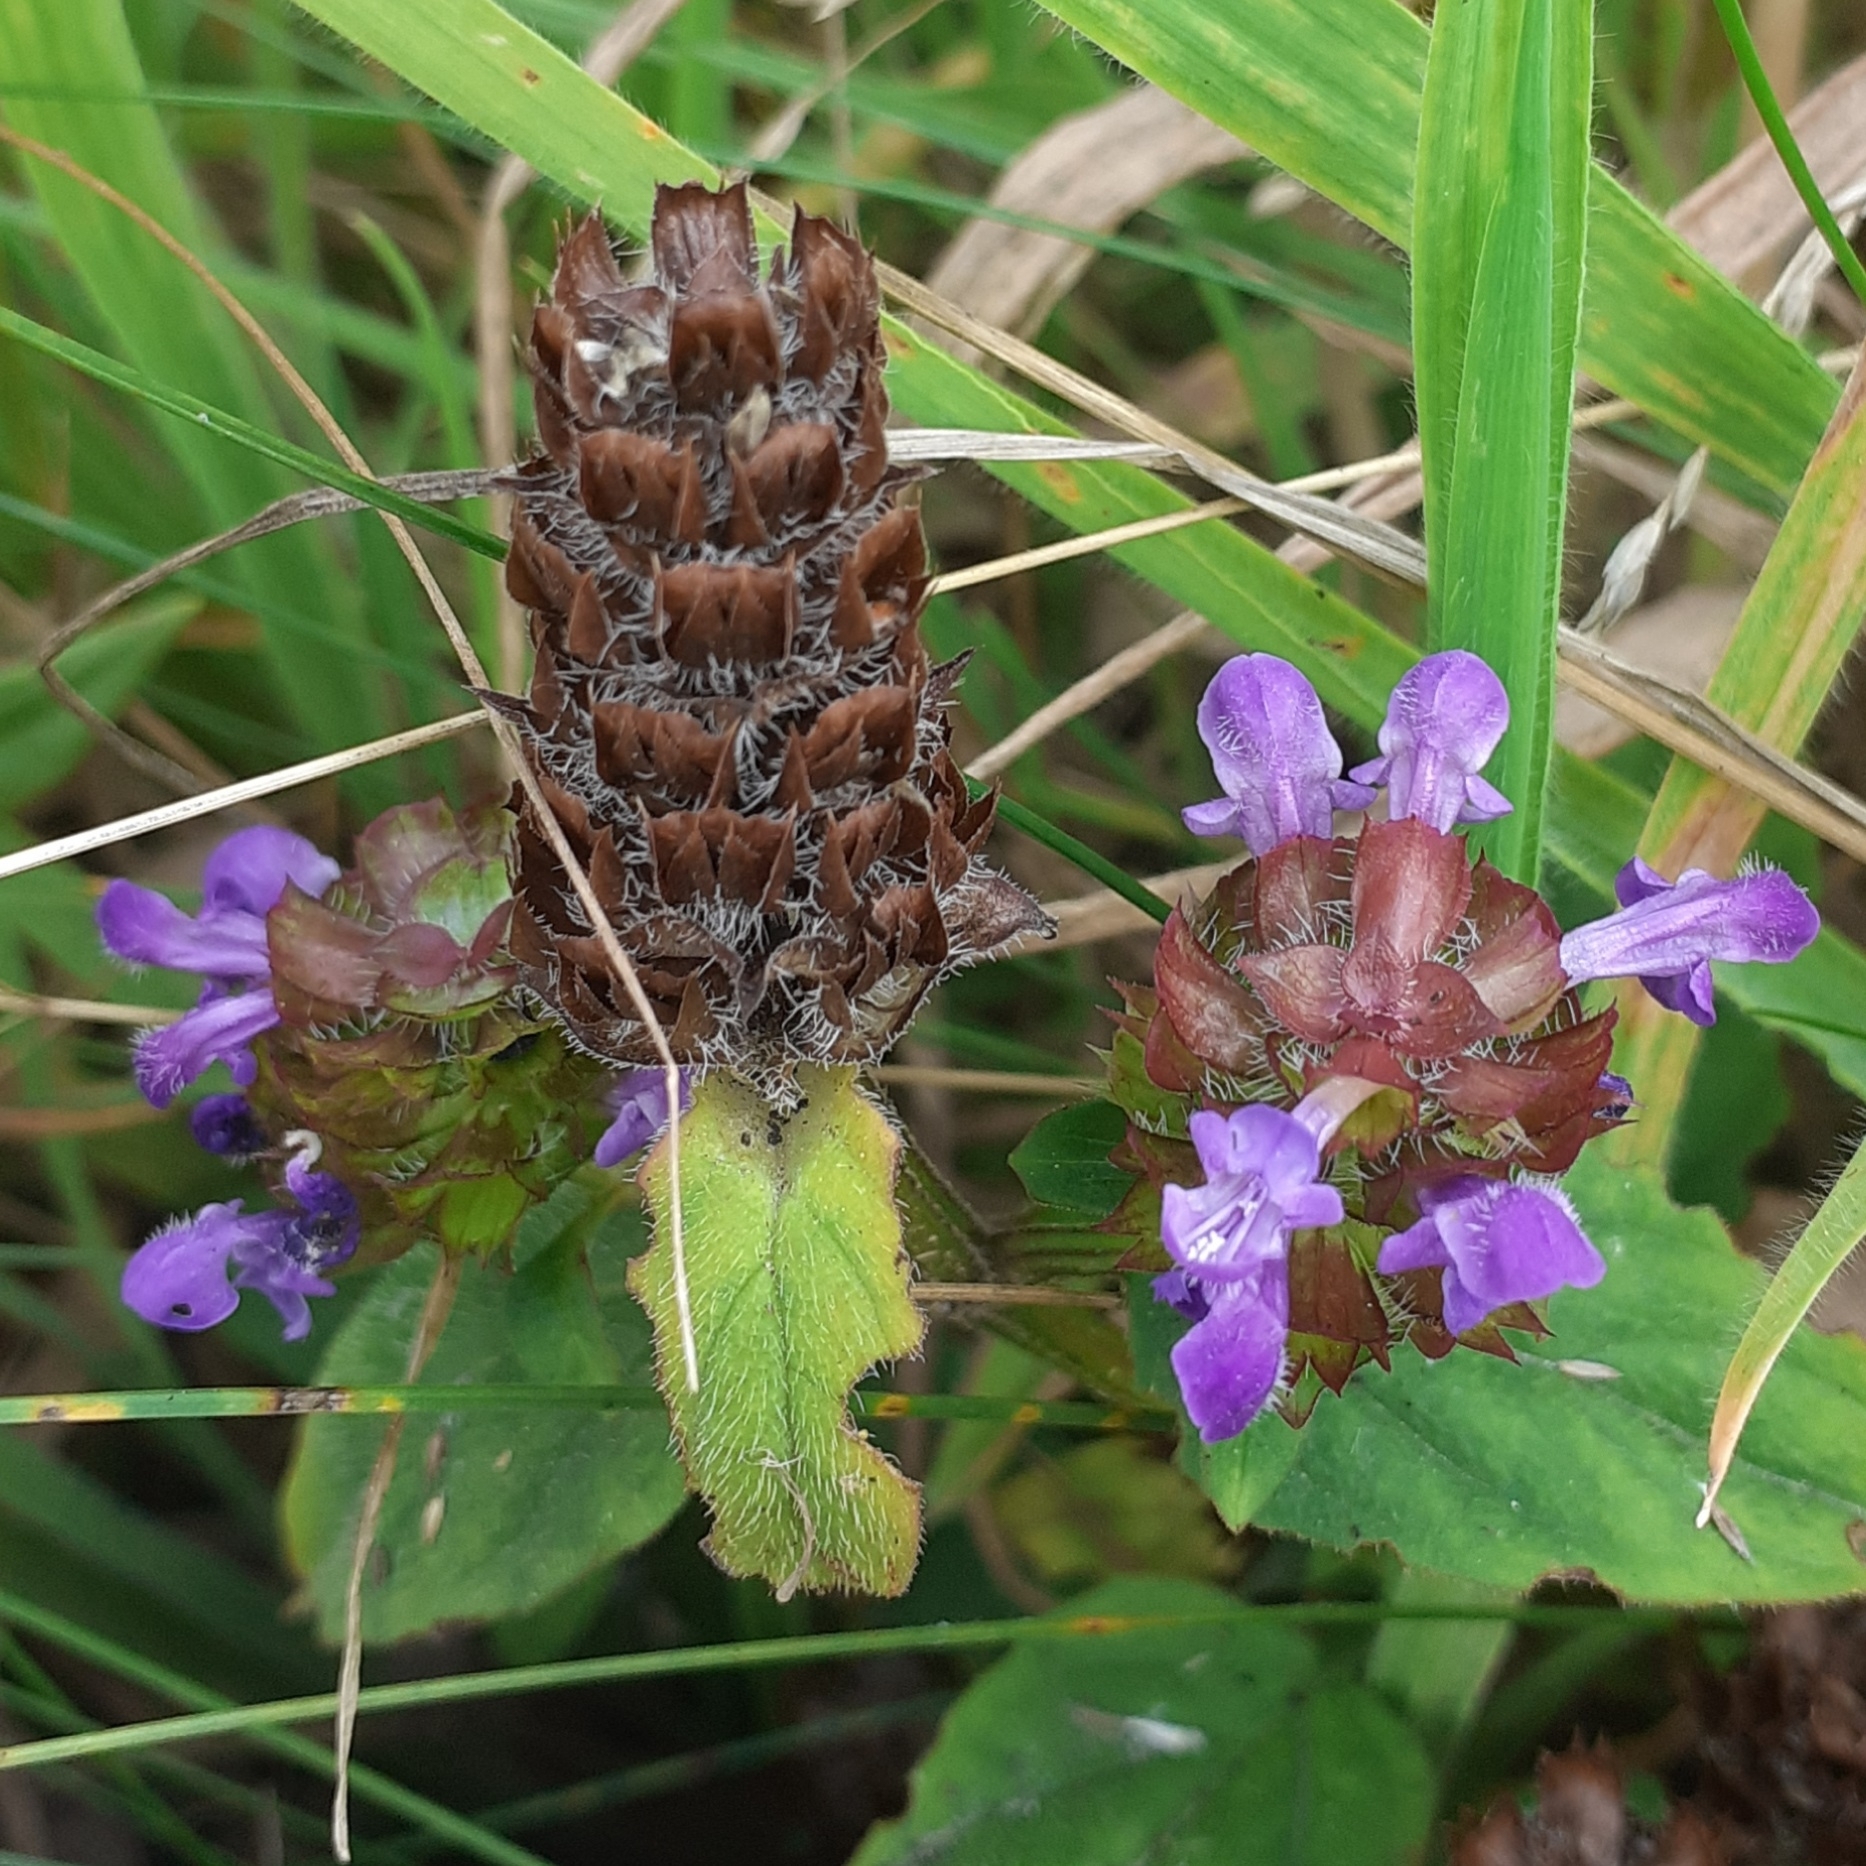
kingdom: Plantae
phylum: Tracheophyta
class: Magnoliopsida
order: Lamiales
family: Lamiaceae
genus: Prunella
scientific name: Prunella vulgaris
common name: Heal-all
